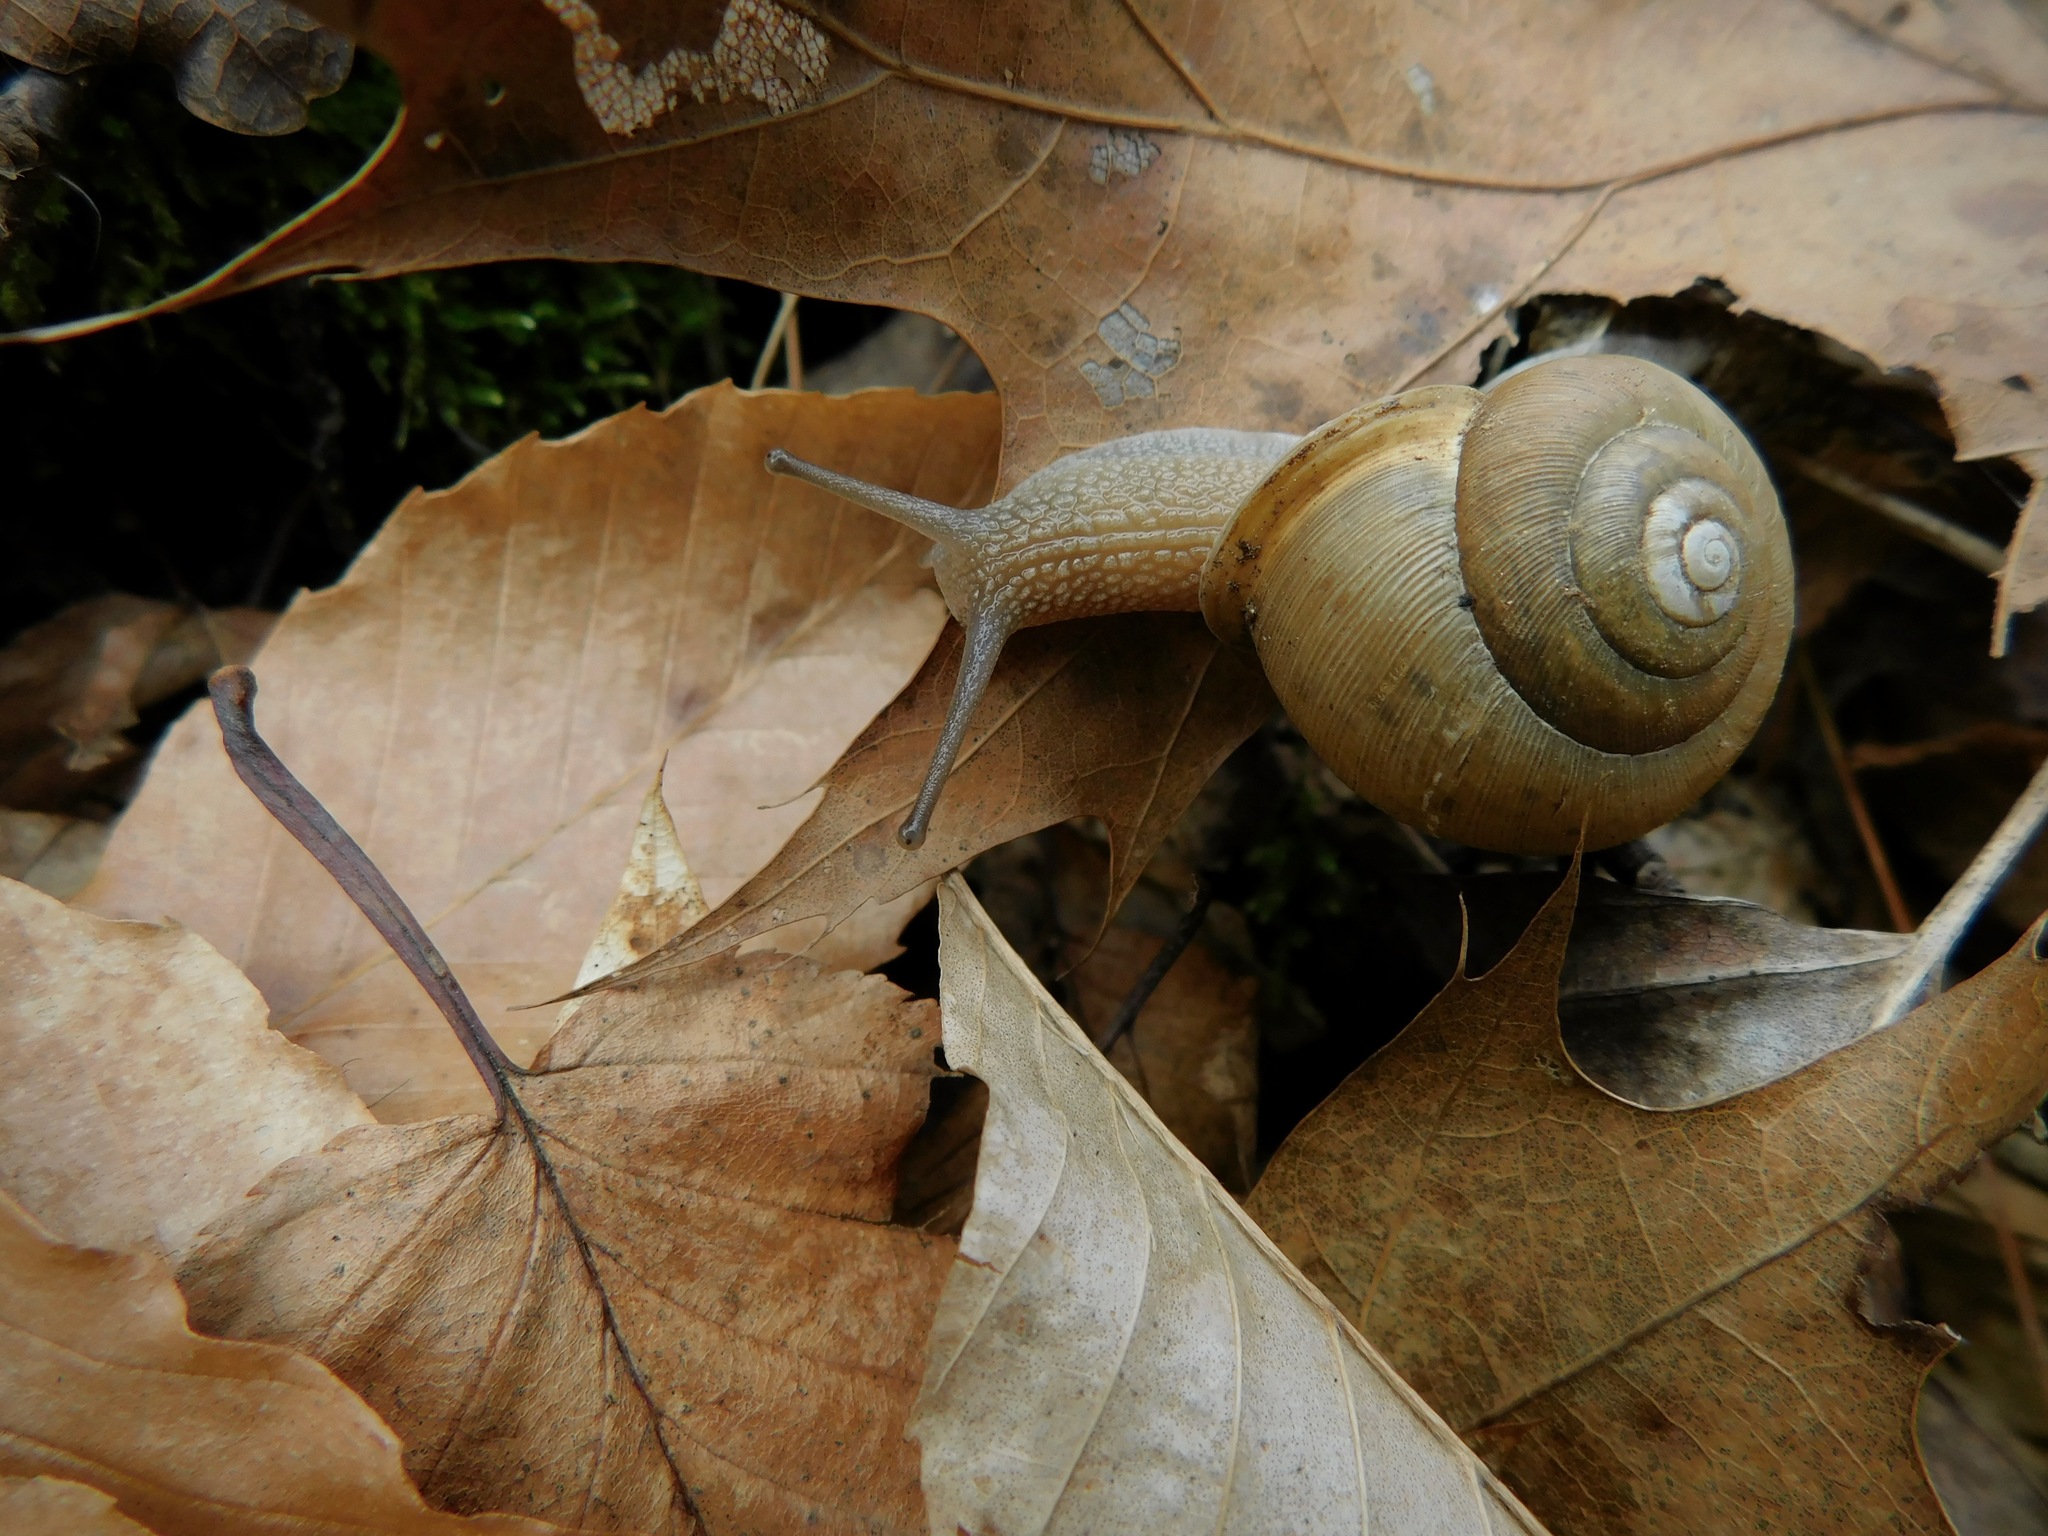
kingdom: Animalia
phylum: Mollusca
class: Gastropoda
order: Stylommatophora
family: Polygyridae
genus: Neohelix
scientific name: Neohelix major
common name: Southeastern whitelip
